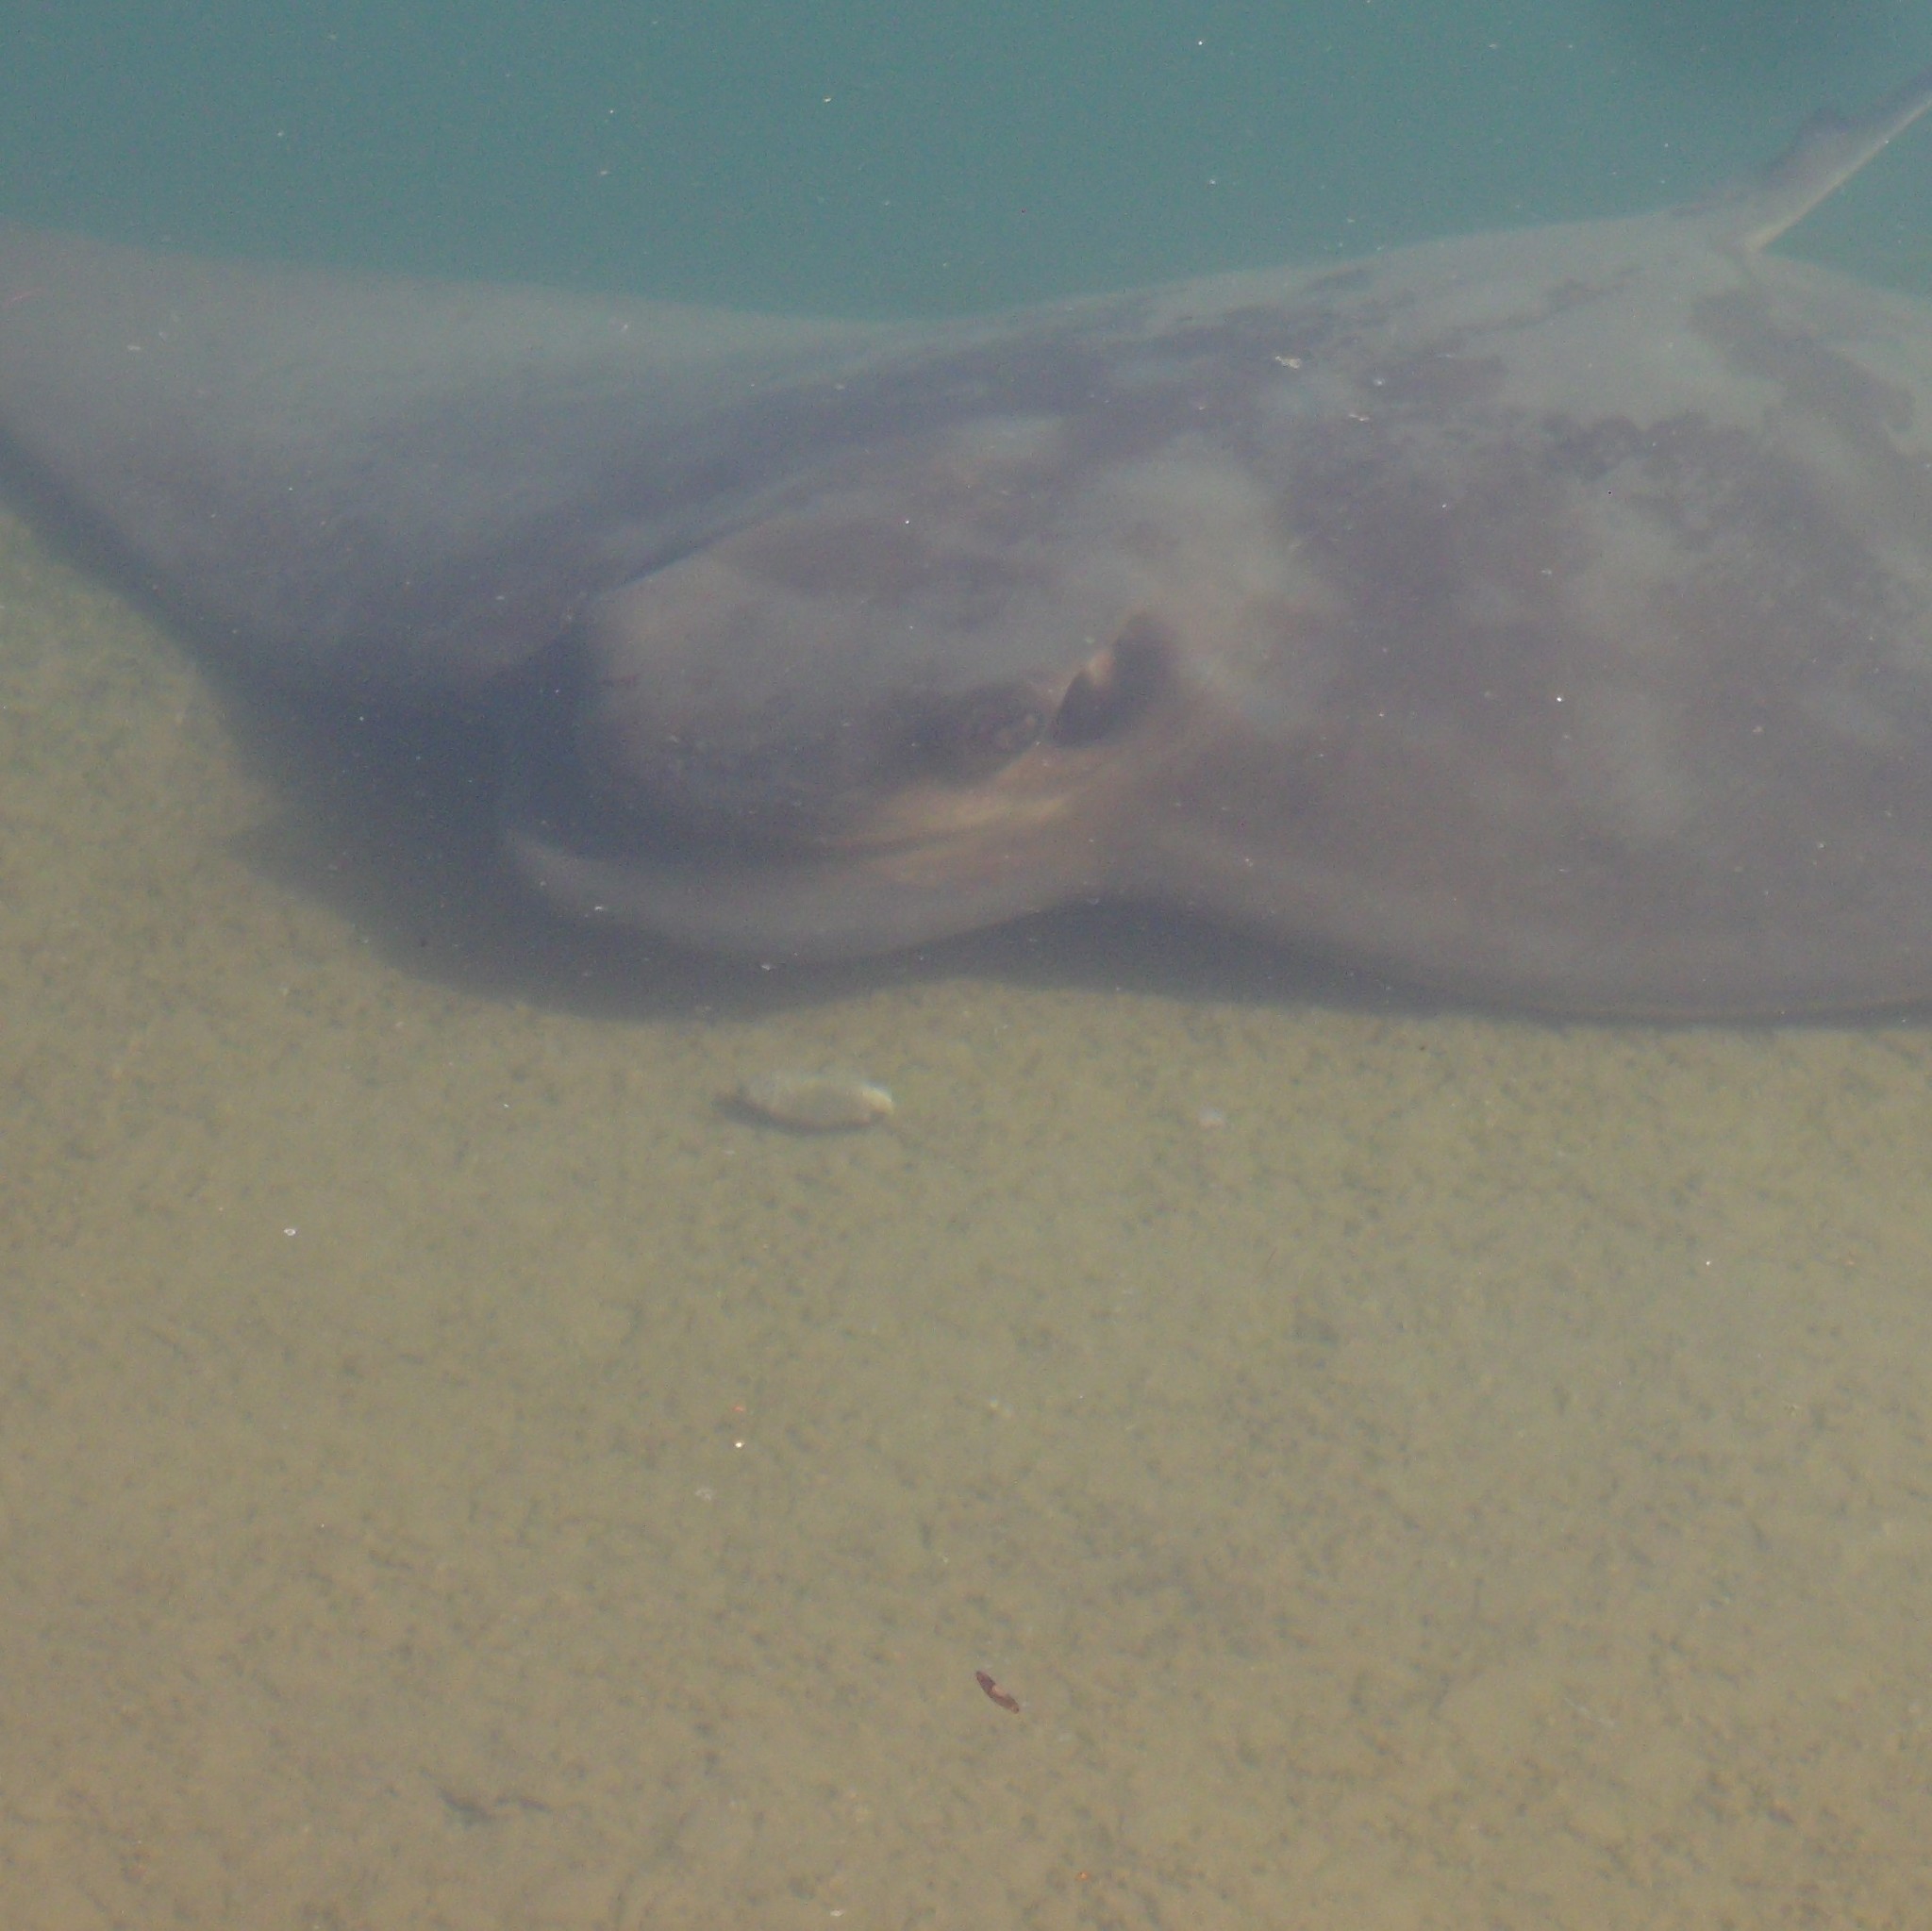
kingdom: Animalia
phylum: Chordata
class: Elasmobranchii
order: Myliobatiformes
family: Myliobatidae
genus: Myliobatis
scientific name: Myliobatis tenuicaudatus
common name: Eagle ray
